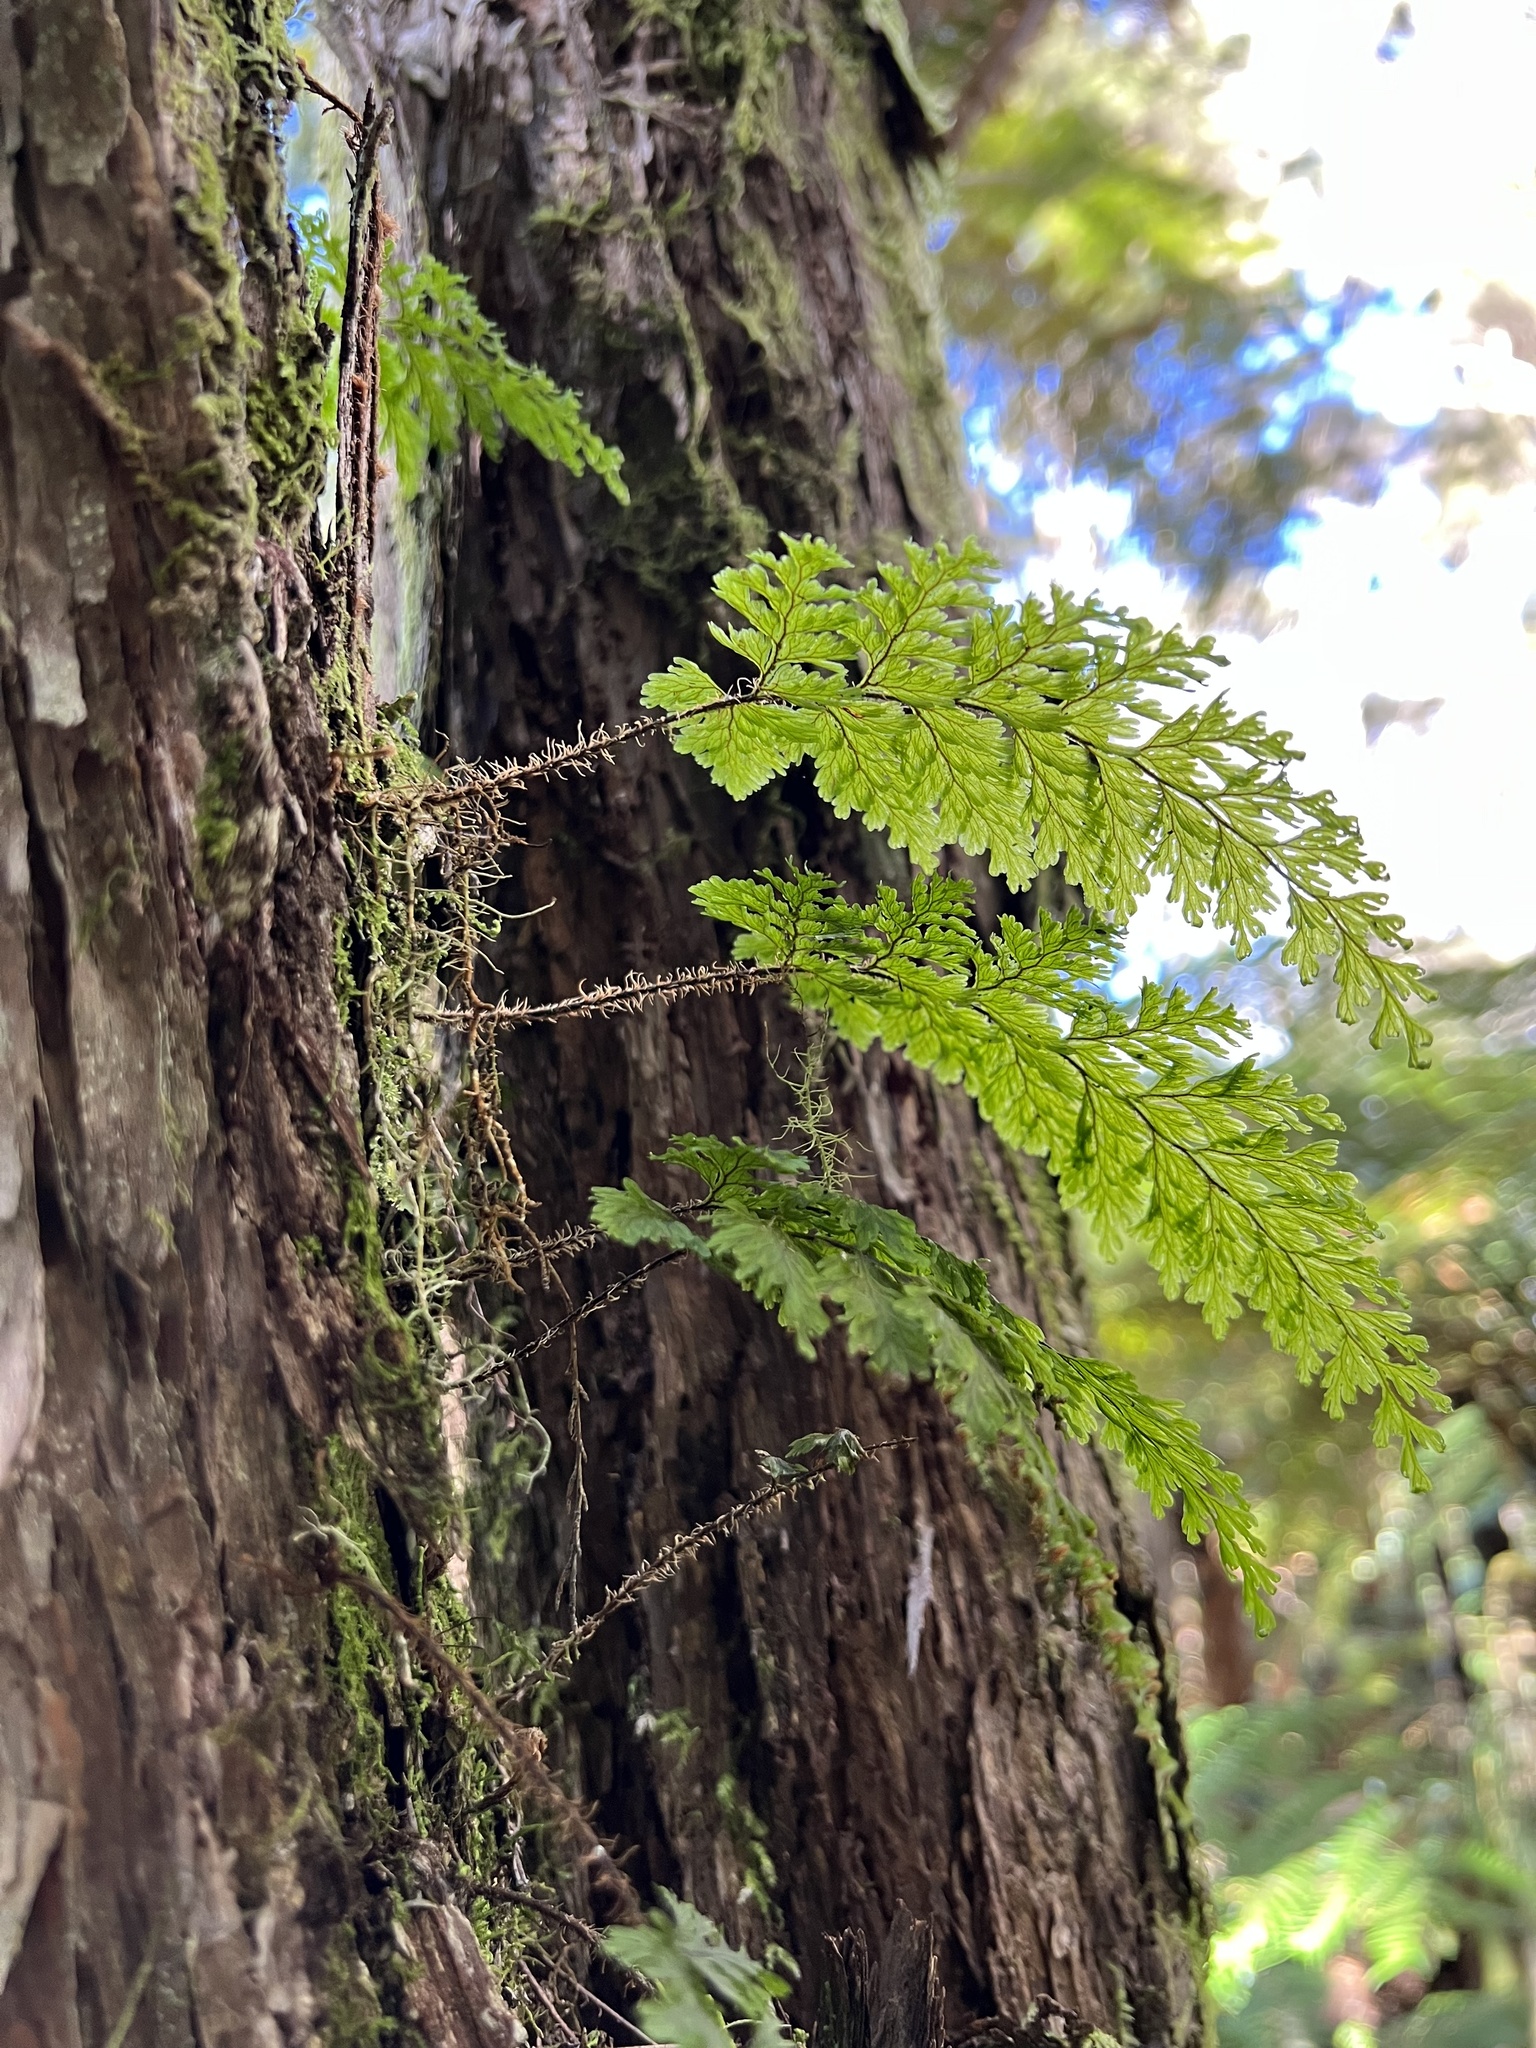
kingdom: Plantae
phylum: Tracheophyta
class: Polypodiopsida
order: Hymenophyllales
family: Hymenophyllaceae
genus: Hymenophyllum
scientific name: Hymenophyllum scabrum
